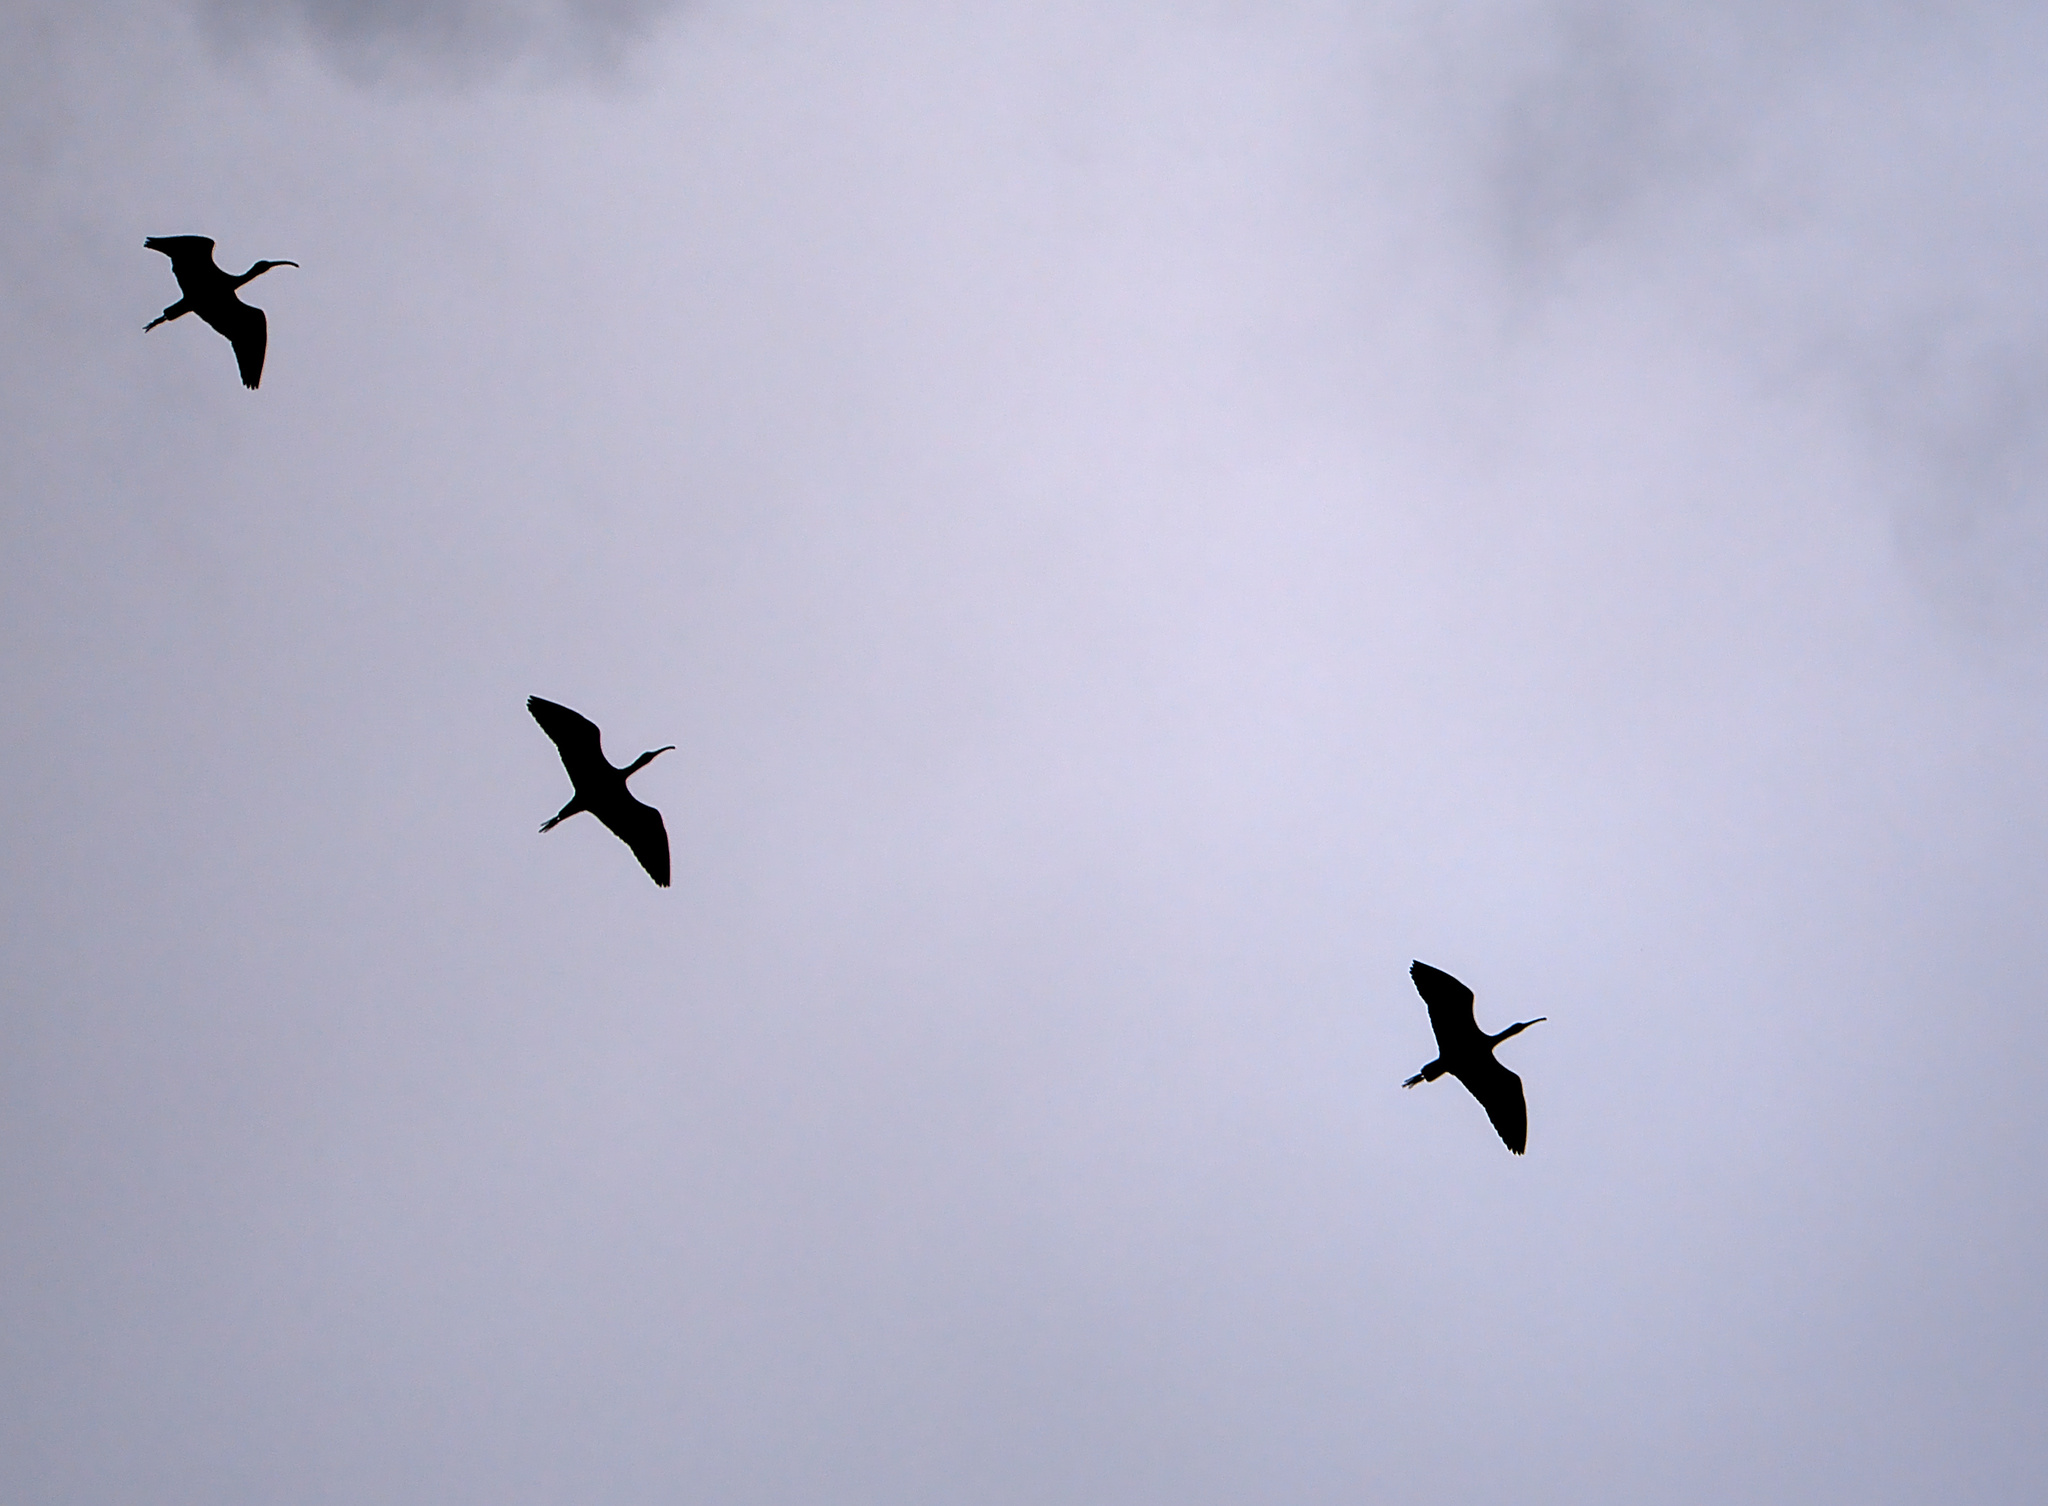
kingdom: Animalia
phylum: Chordata
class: Aves
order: Pelecaniformes
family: Threskiornithidae
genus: Plegadis
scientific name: Plegadis falcinellus
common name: Glossy ibis
